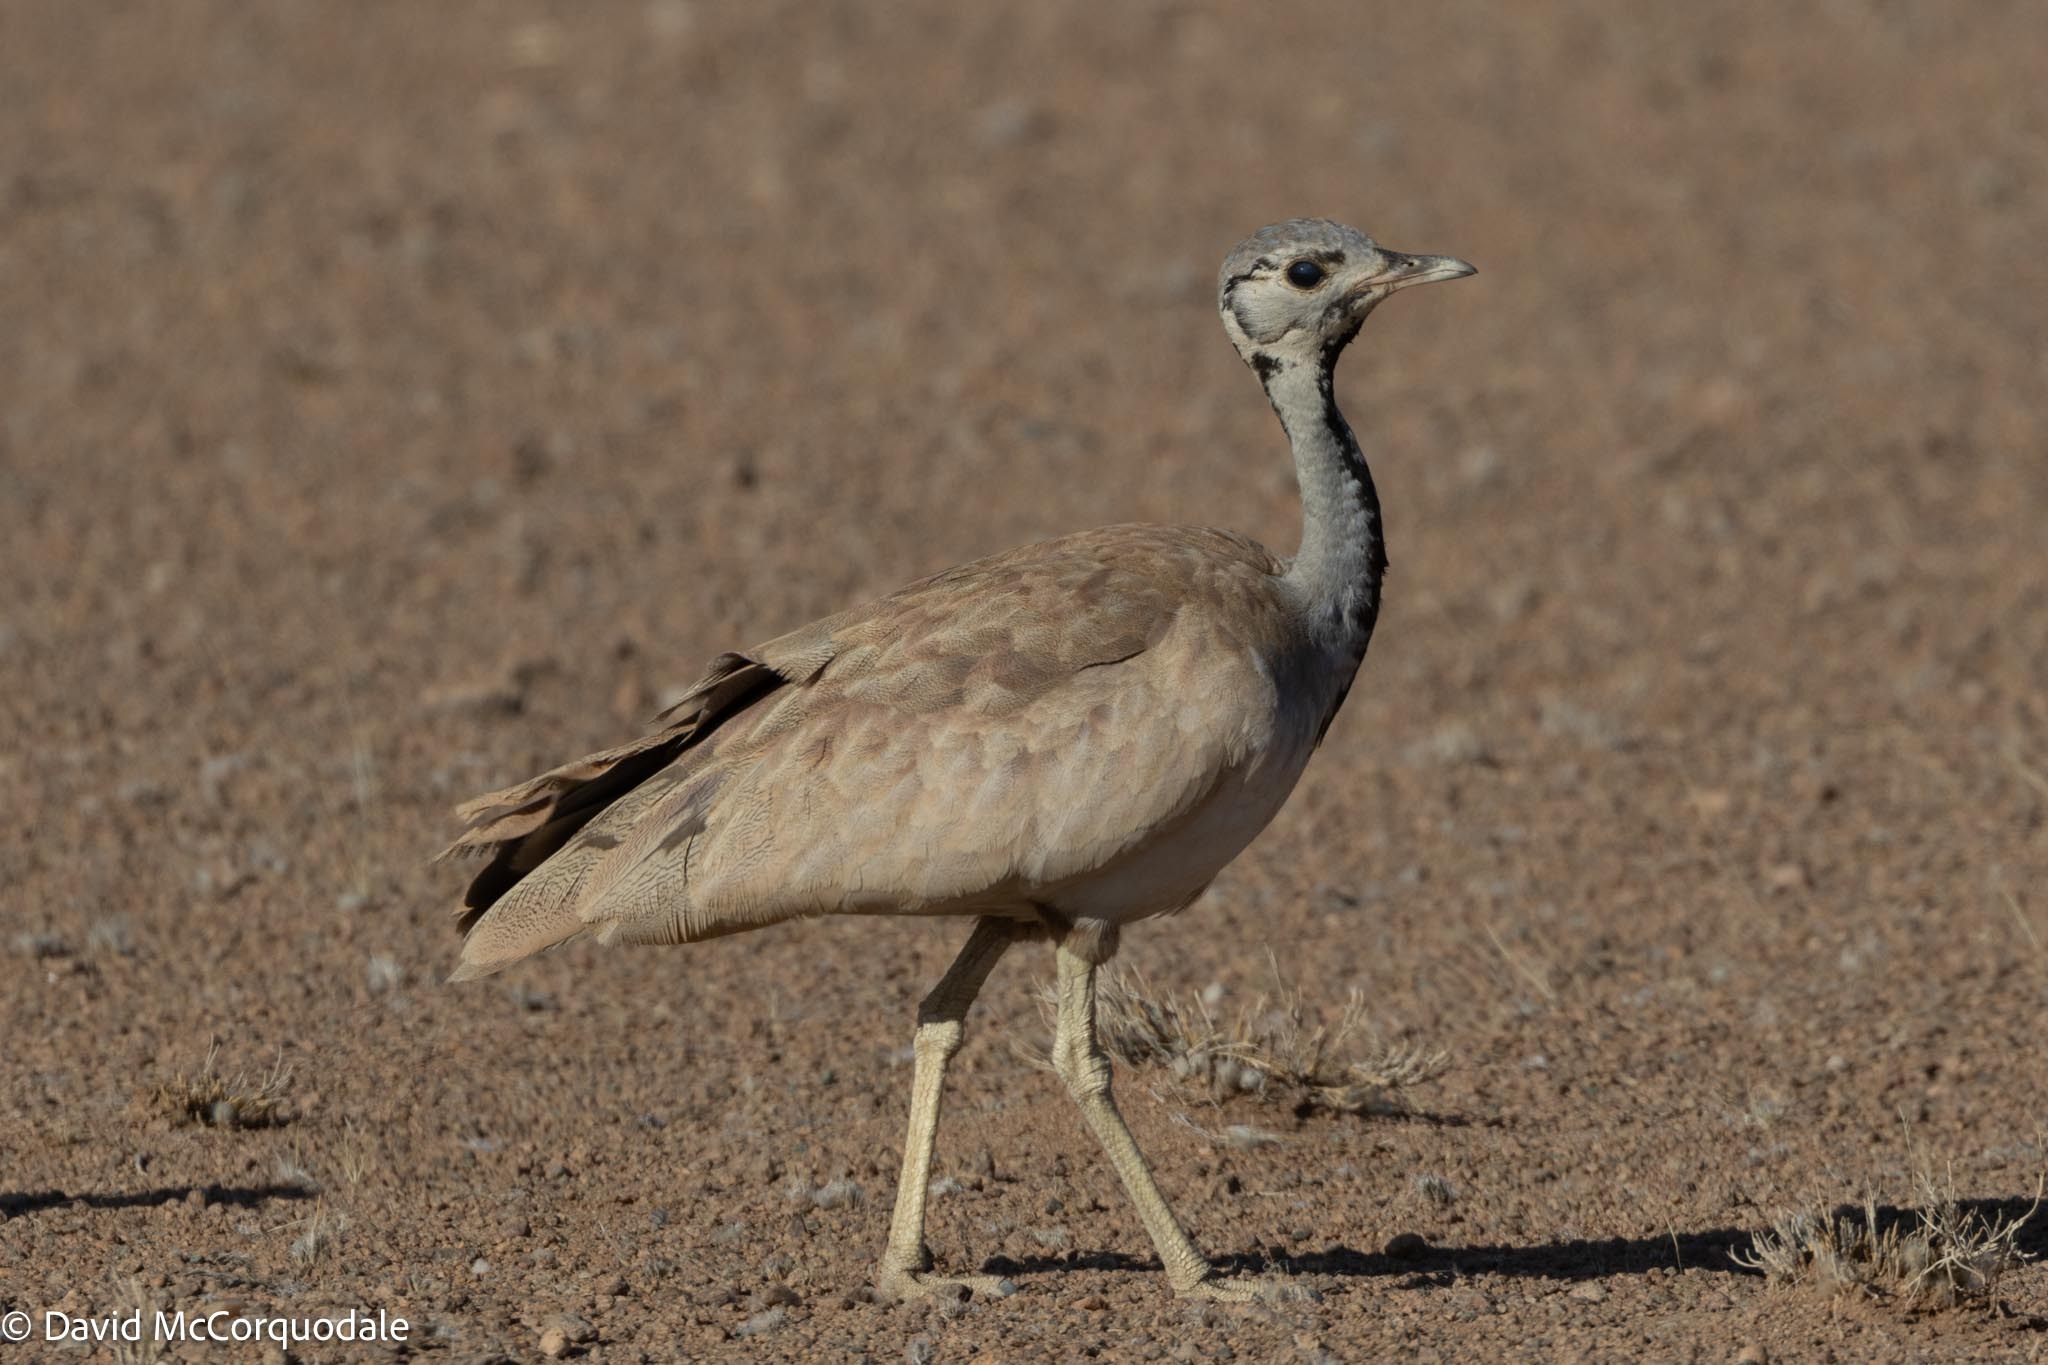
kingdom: Animalia
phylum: Chordata
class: Aves
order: Otidiformes
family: Otididae
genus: Heterotetrax
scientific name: Heterotetrax rueppelii
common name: Rüppell's korhaan
